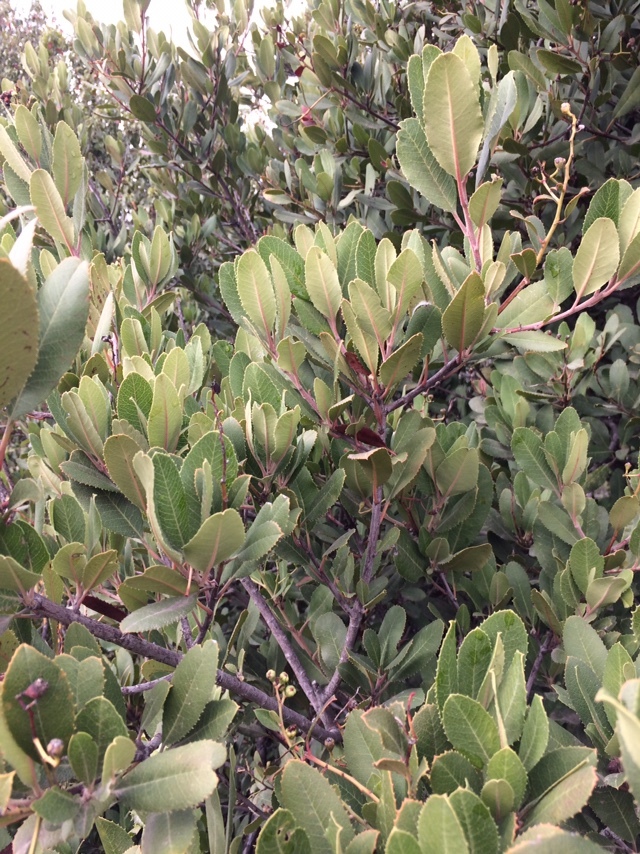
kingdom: Plantae
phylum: Tracheophyta
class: Magnoliopsida
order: Rosales
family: Rosaceae
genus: Heteromeles
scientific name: Heteromeles arbutifolia
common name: California-holly
